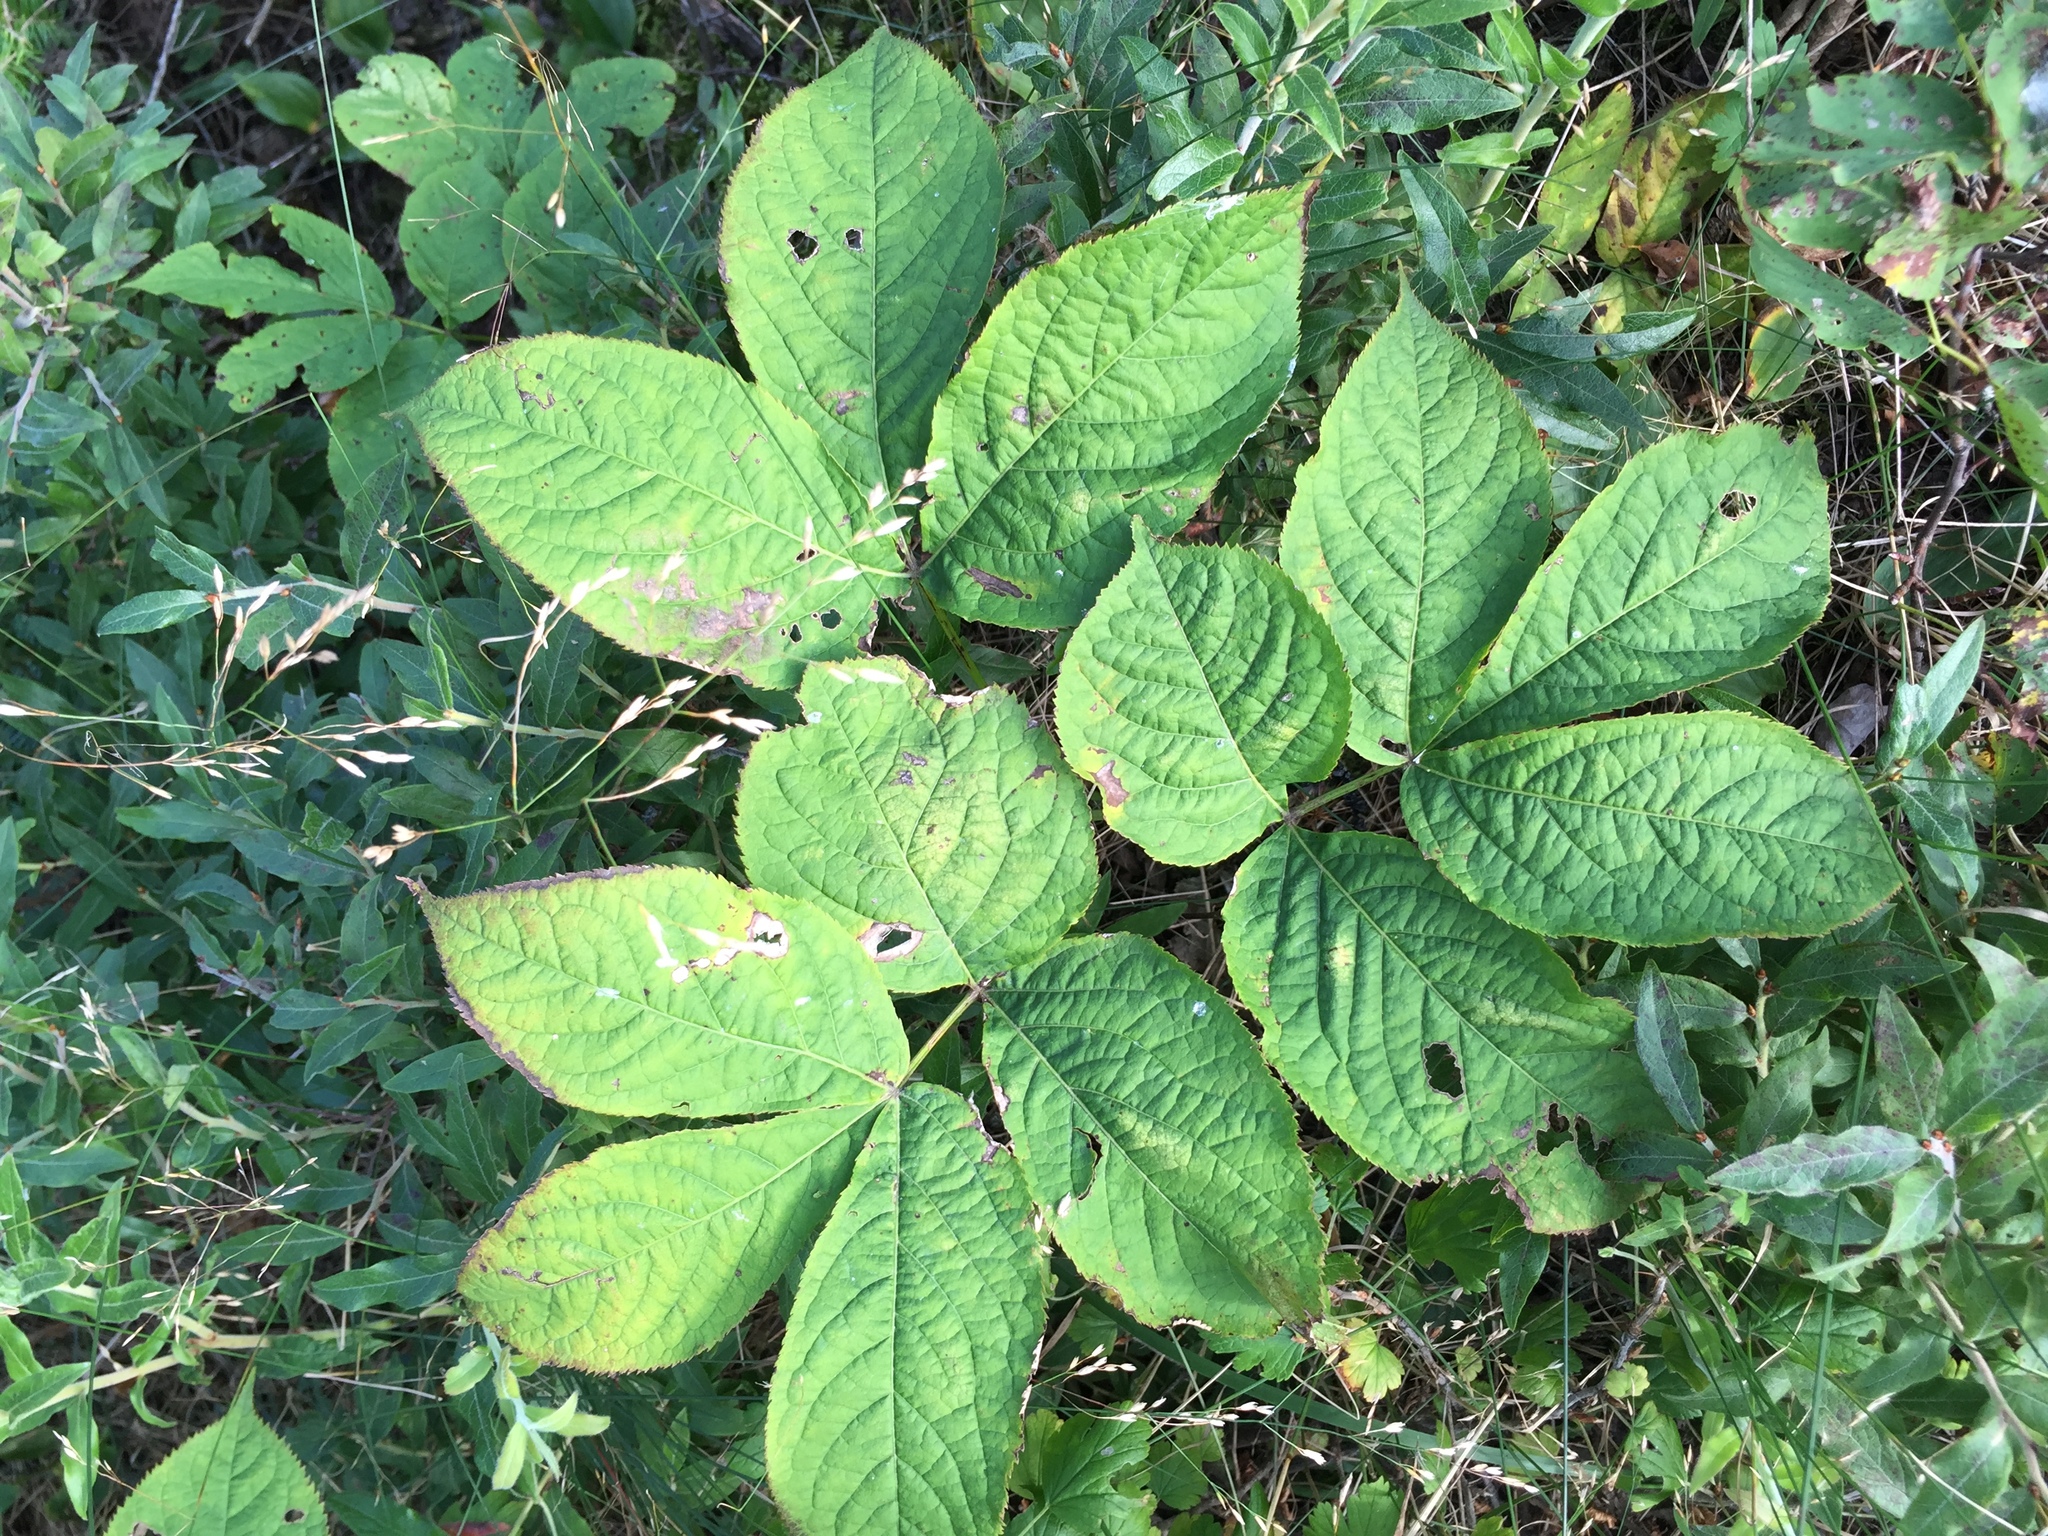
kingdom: Plantae
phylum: Tracheophyta
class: Magnoliopsida
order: Apiales
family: Araliaceae
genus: Aralia
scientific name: Aralia nudicaulis
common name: Wild sarsaparilla
